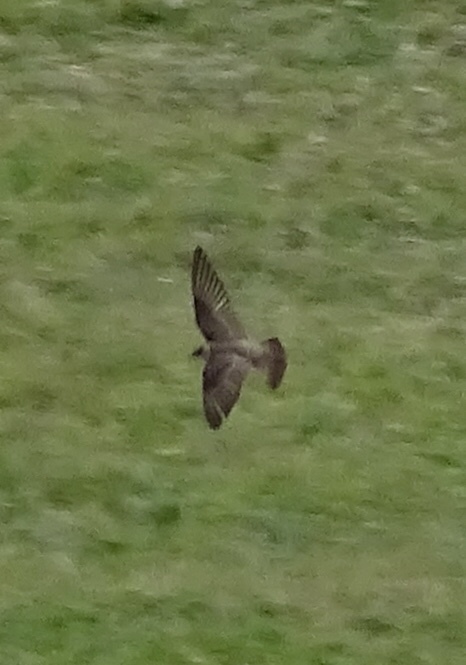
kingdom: Animalia
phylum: Chordata
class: Aves
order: Passeriformes
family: Hirundinidae
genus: Stelgidopteryx
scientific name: Stelgidopteryx serripennis
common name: Northern rough-winged swallow
